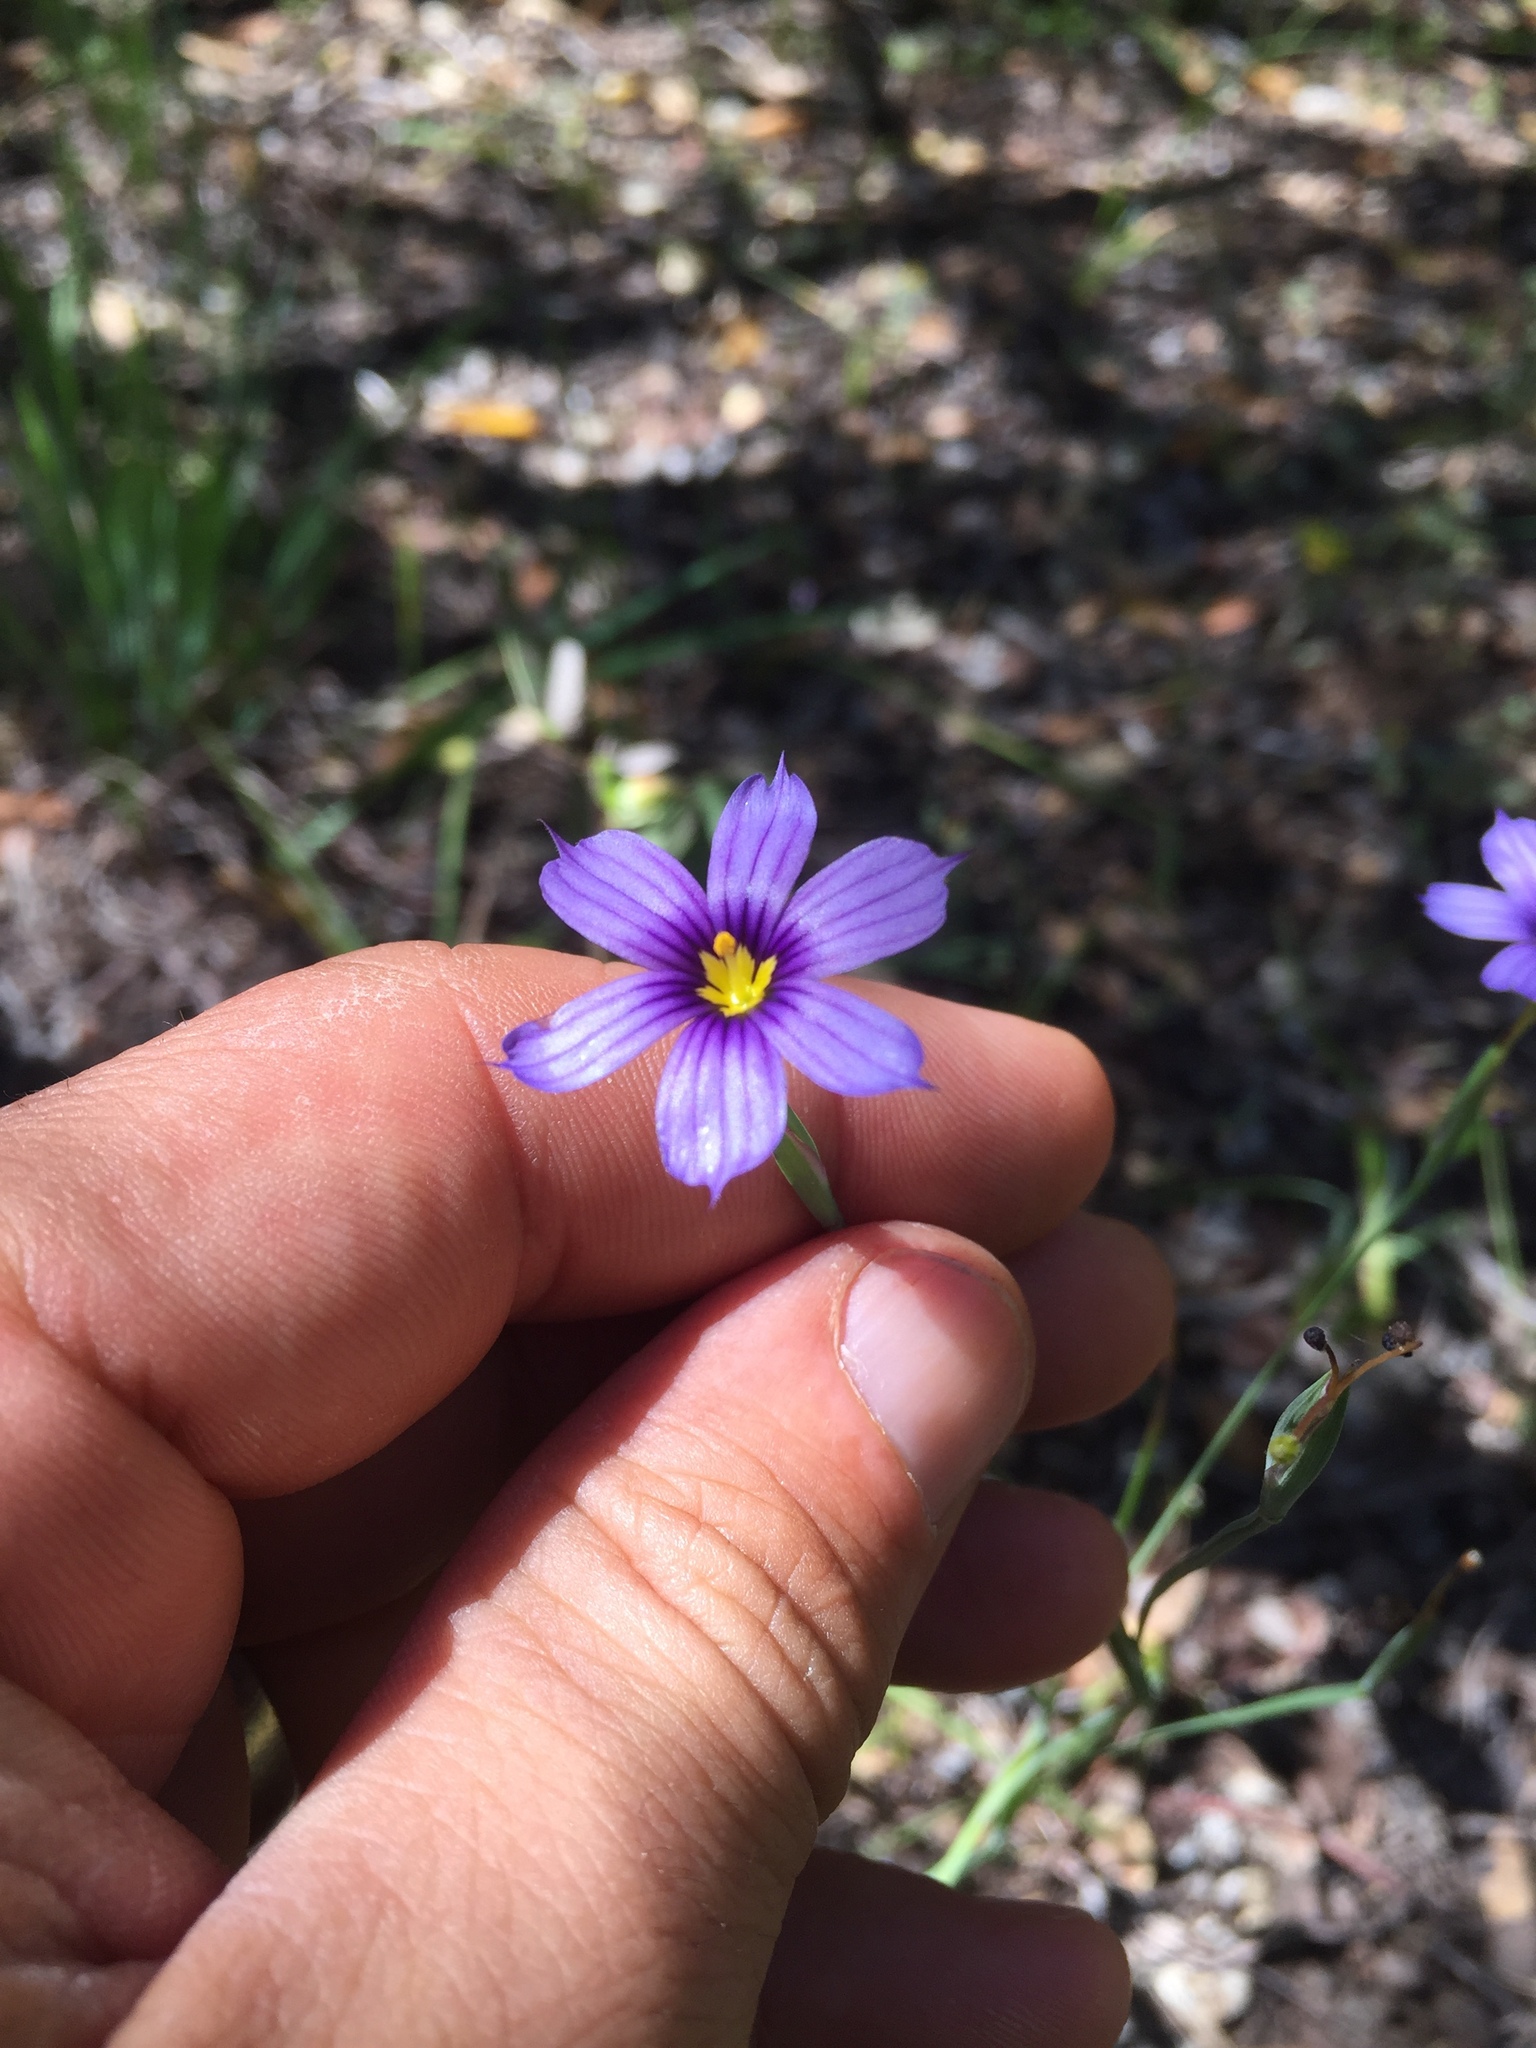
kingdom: Plantae
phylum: Tracheophyta
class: Liliopsida
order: Asparagales
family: Iridaceae
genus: Sisyrinchium
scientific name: Sisyrinchium bellum
